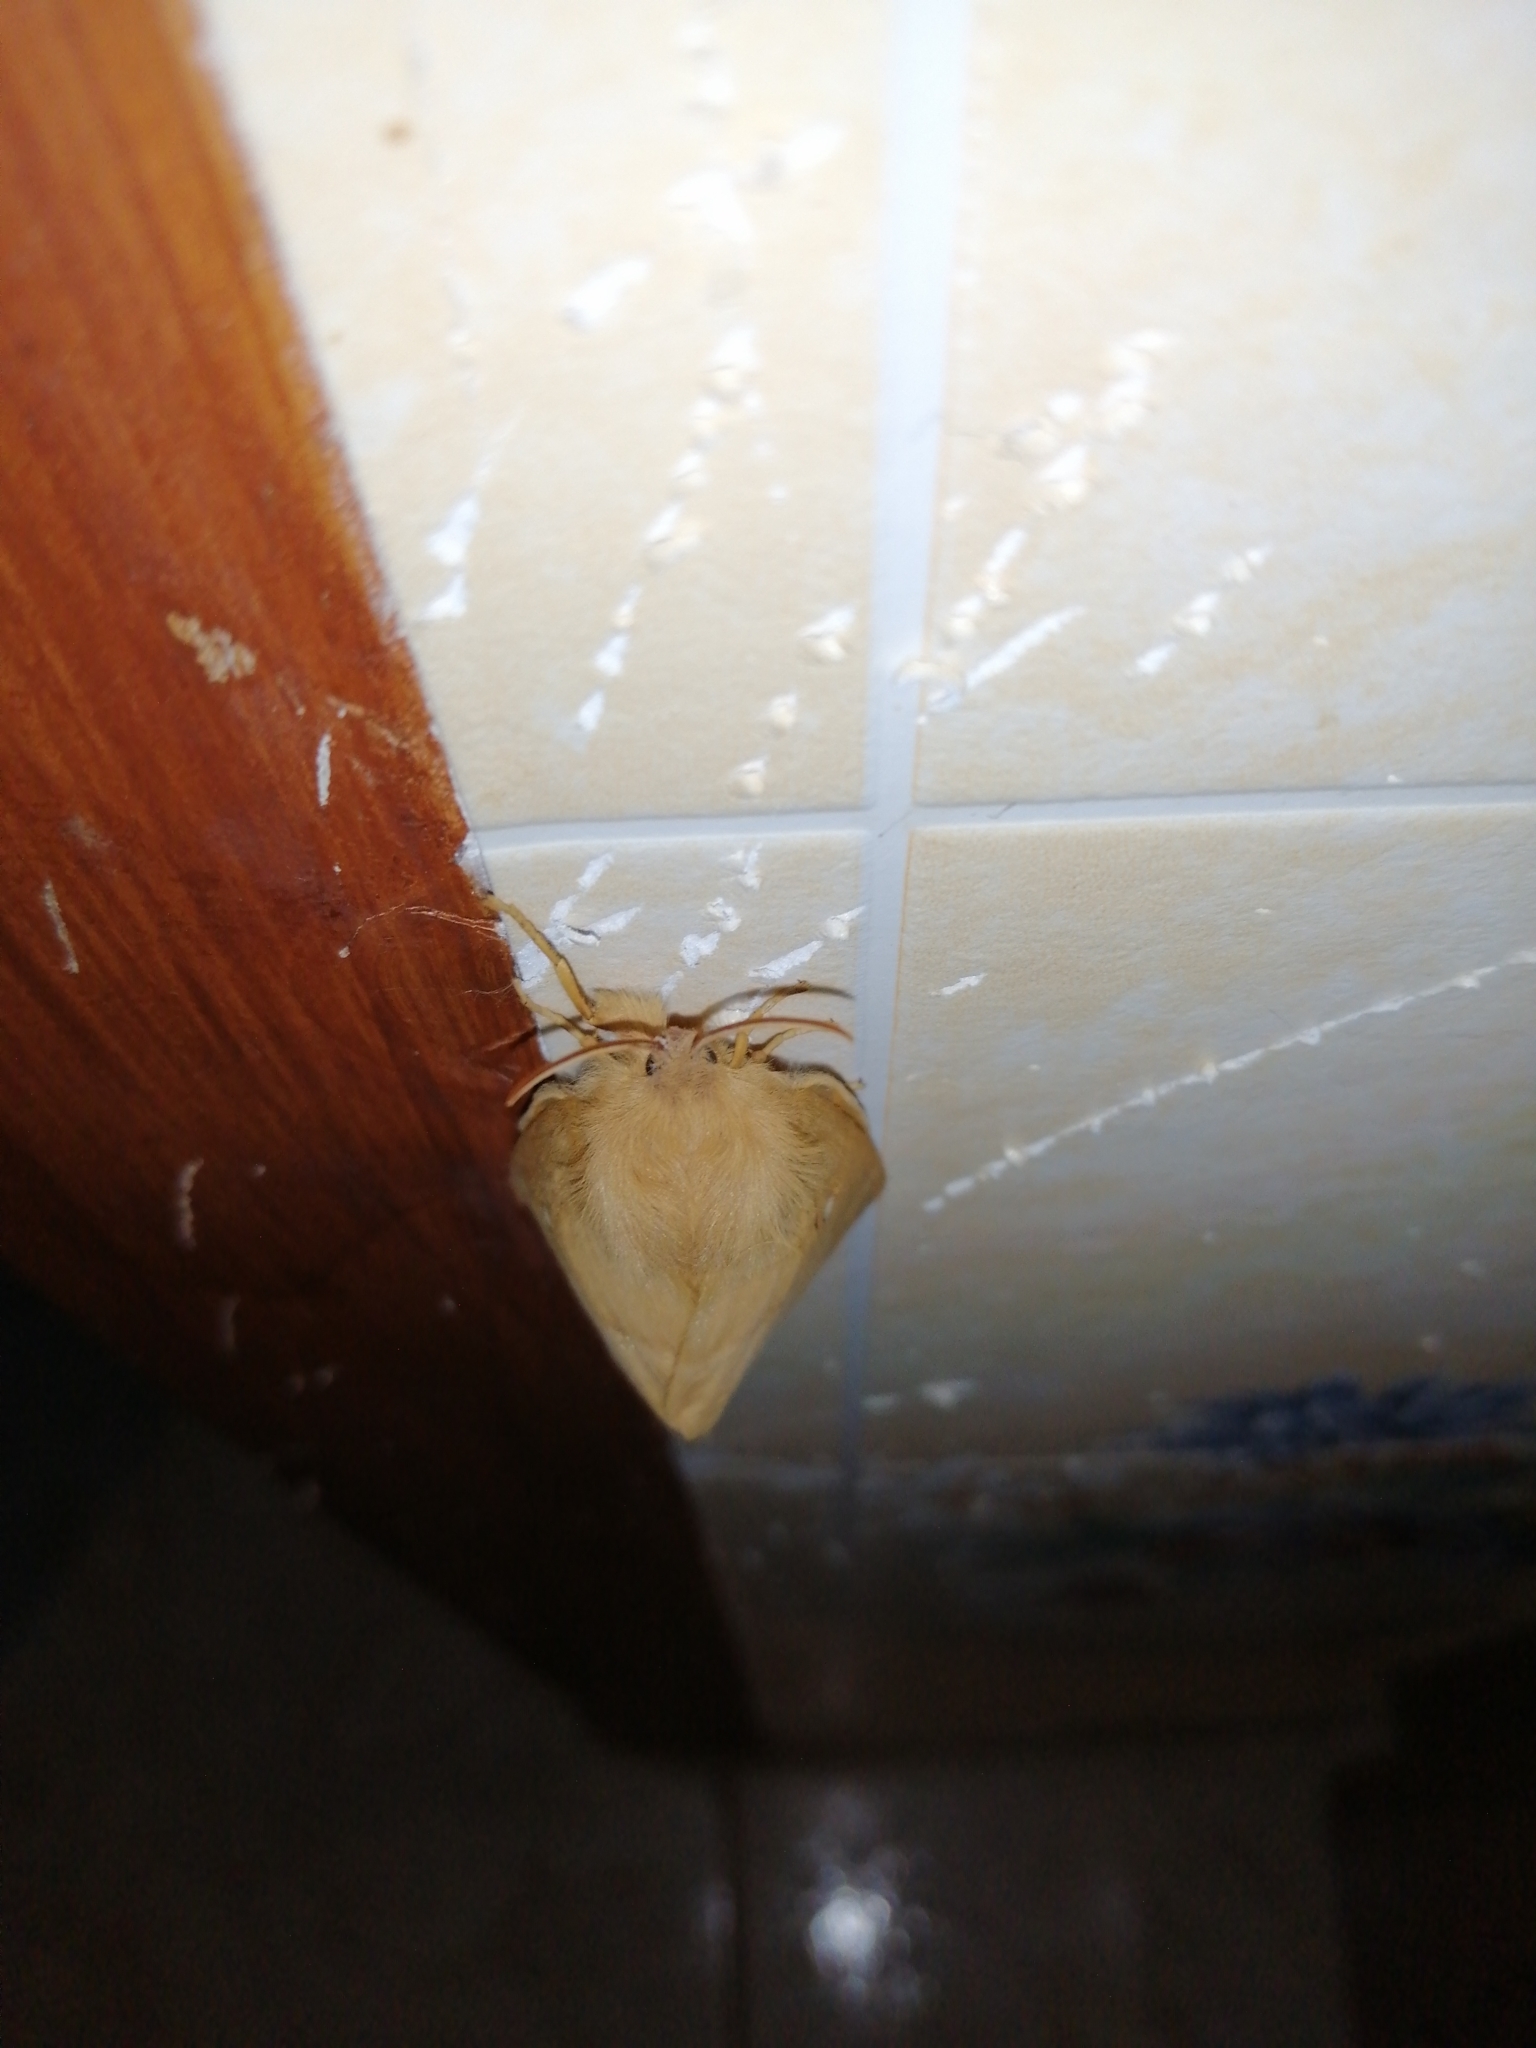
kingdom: Animalia
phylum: Arthropoda
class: Insecta
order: Lepidoptera
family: Lasiocampidae
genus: Lasiocampa
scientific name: Lasiocampa quercus
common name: Oak eggar
